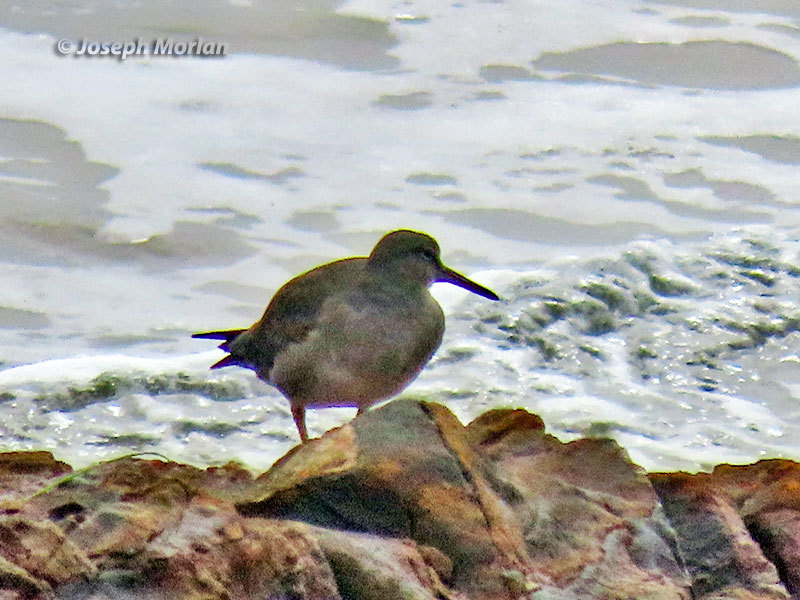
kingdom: Animalia
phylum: Chordata
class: Aves
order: Charadriiformes
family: Scolopacidae
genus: Tringa
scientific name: Tringa incana
